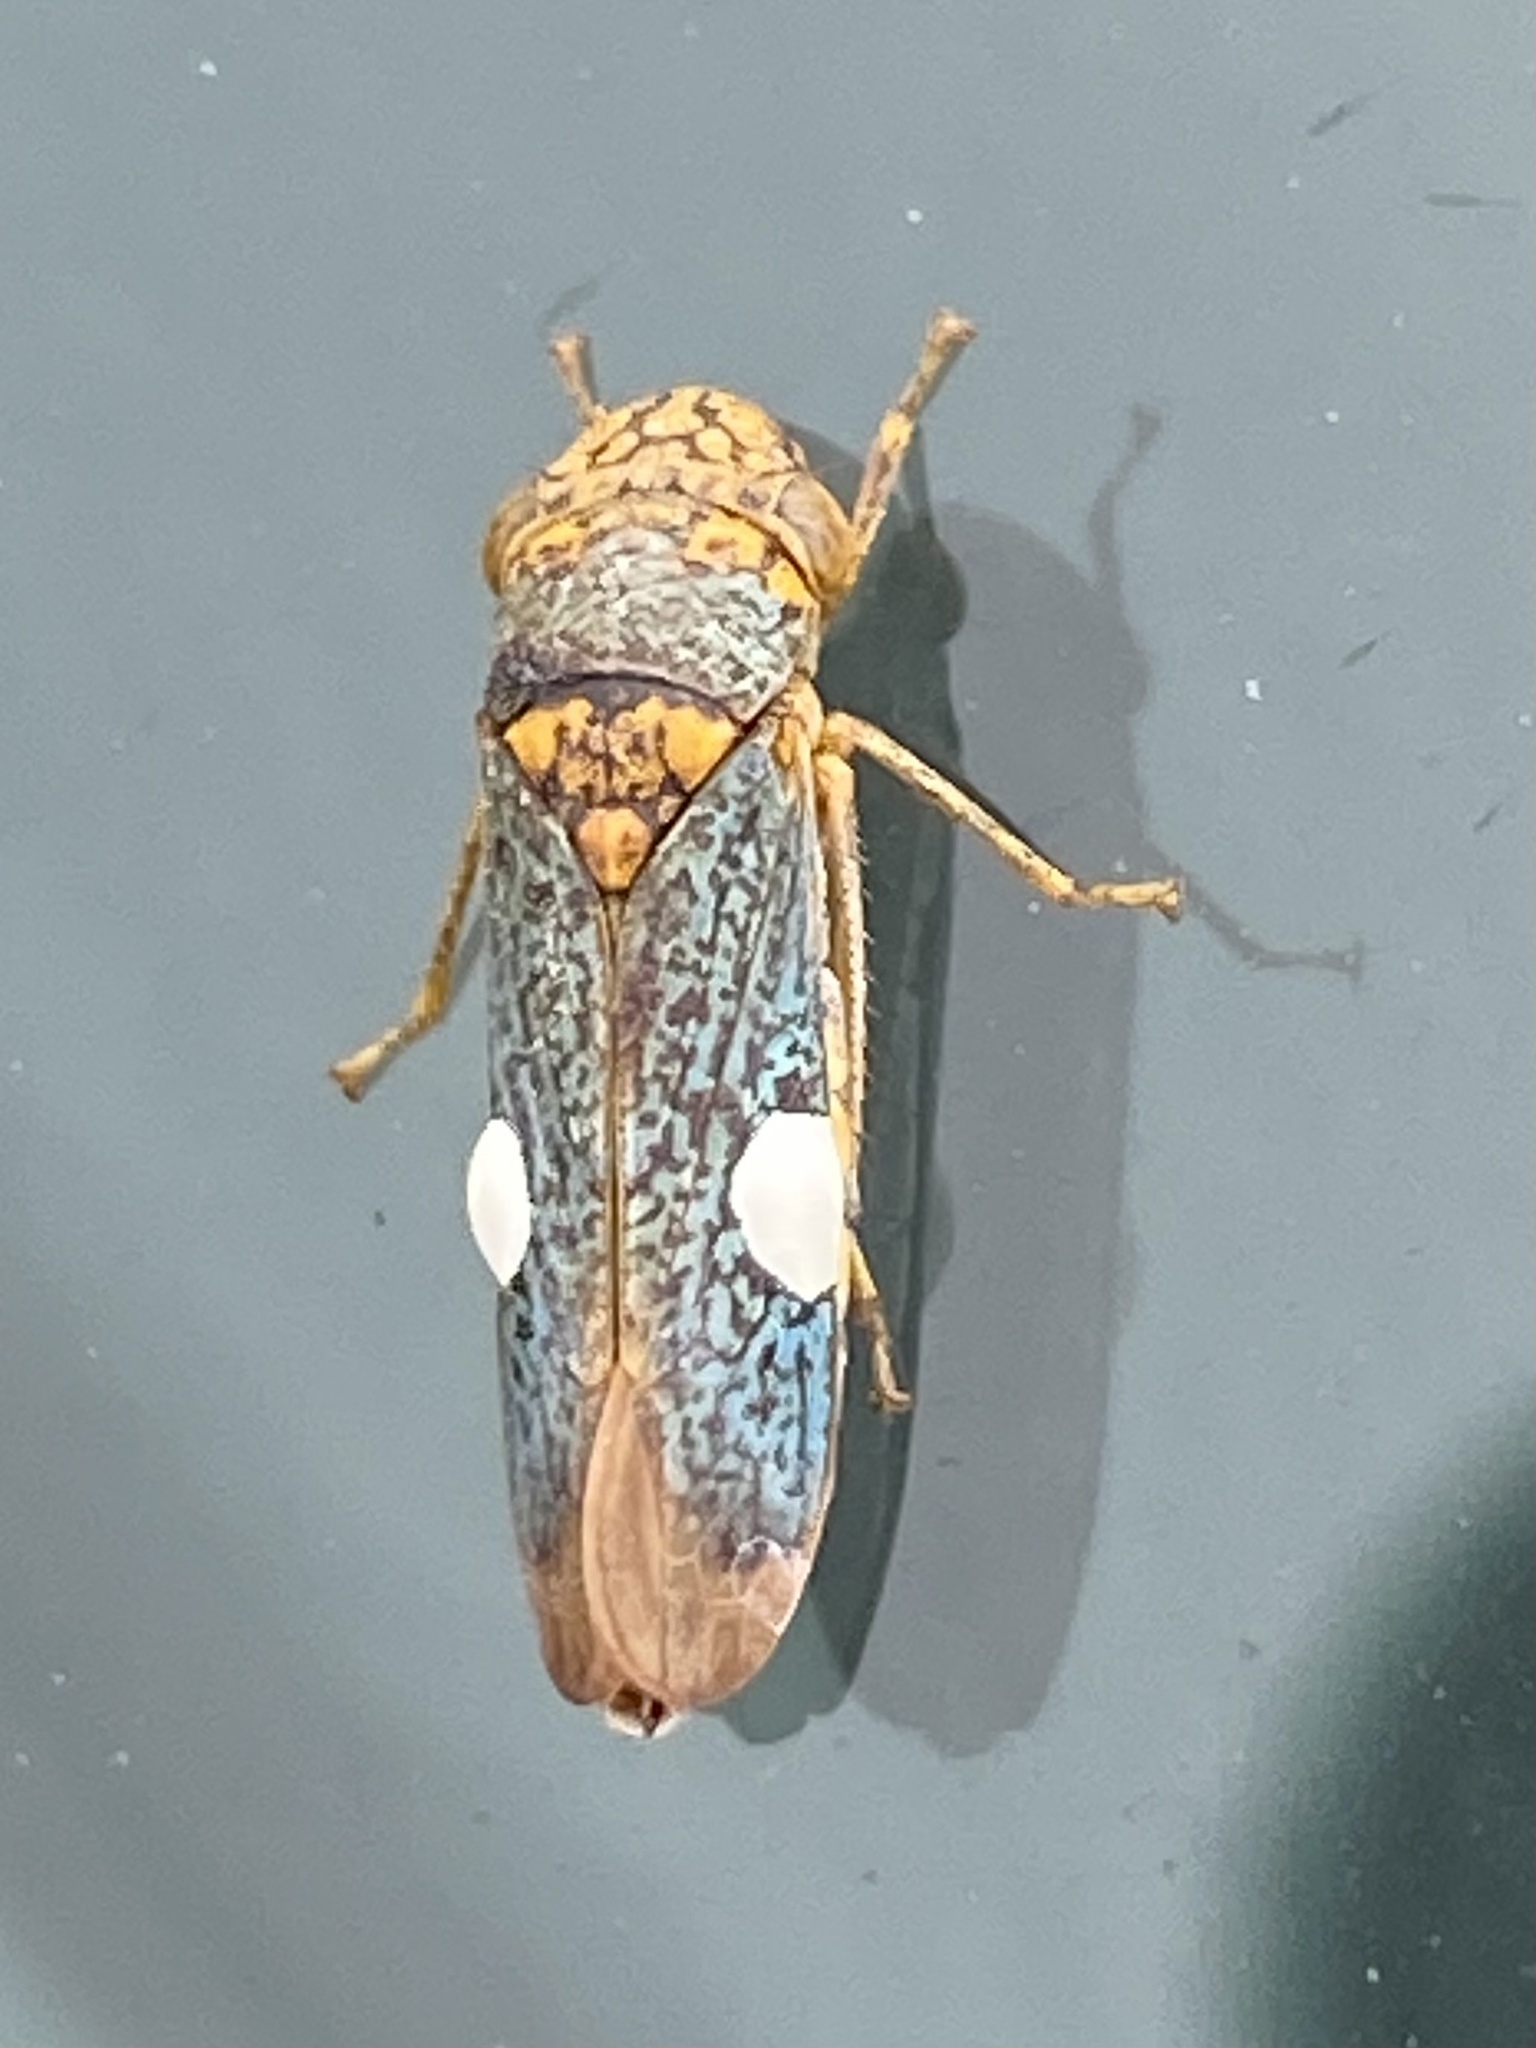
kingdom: Animalia
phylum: Arthropoda
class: Insecta
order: Hemiptera
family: Cicadellidae
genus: Oncometopia
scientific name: Oncometopia orbona
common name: Broad-headed sharpshooter
